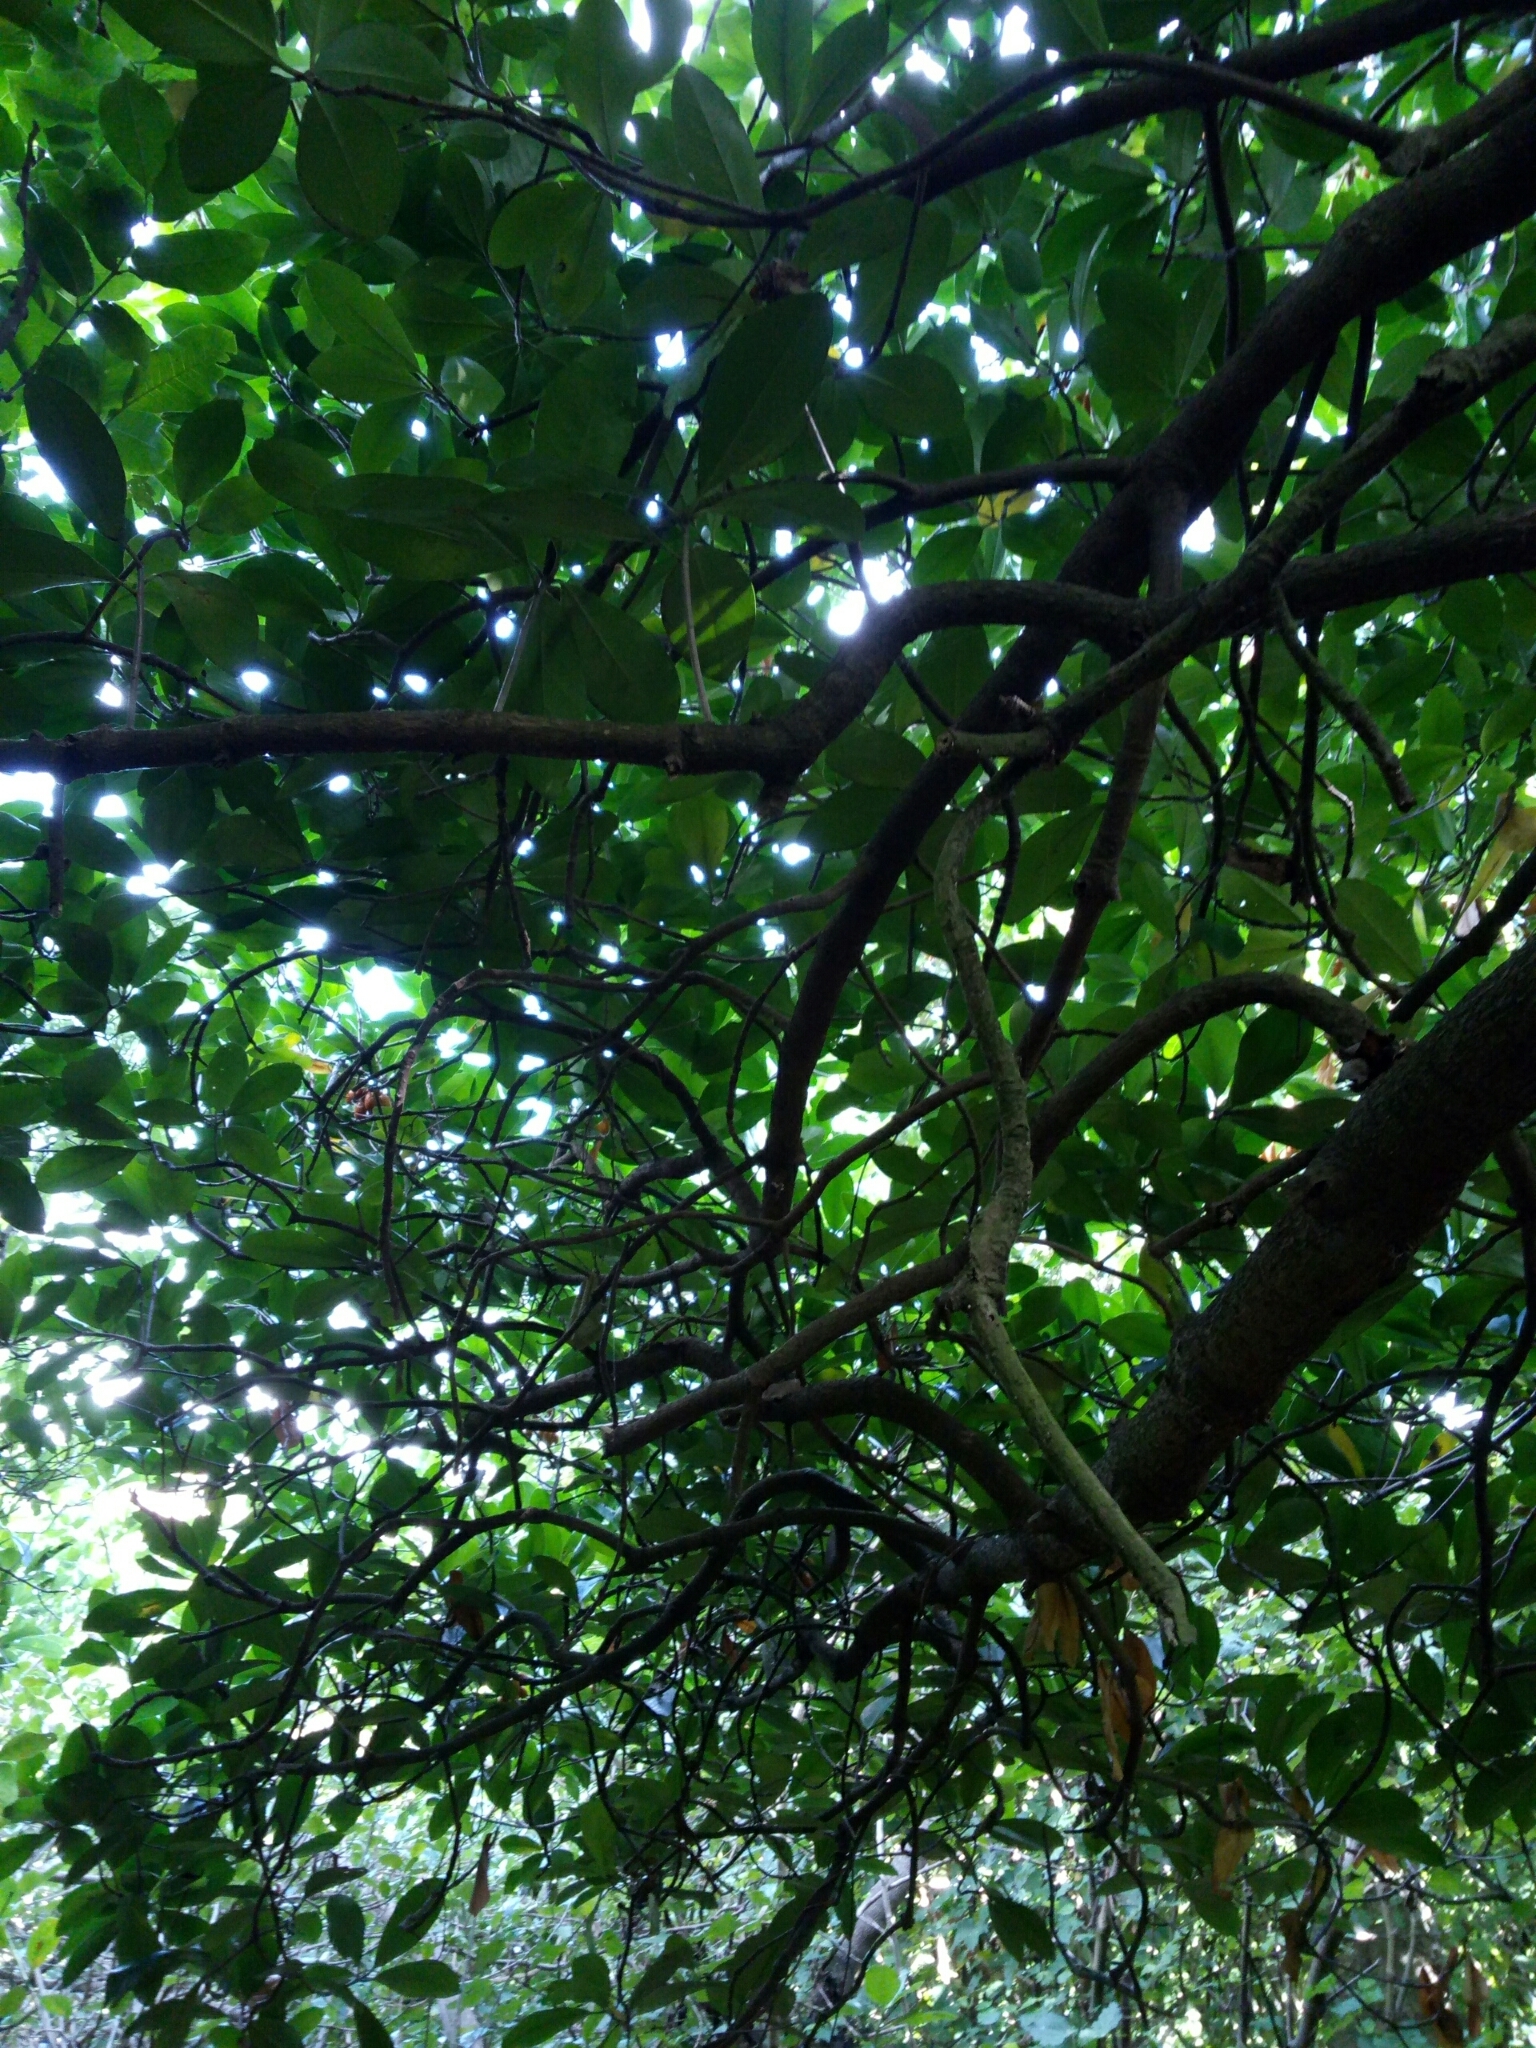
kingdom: Plantae
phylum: Tracheophyta
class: Magnoliopsida
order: Cucurbitales
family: Corynocarpaceae
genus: Corynocarpus
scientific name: Corynocarpus laevigatus
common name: New zealand laurel
